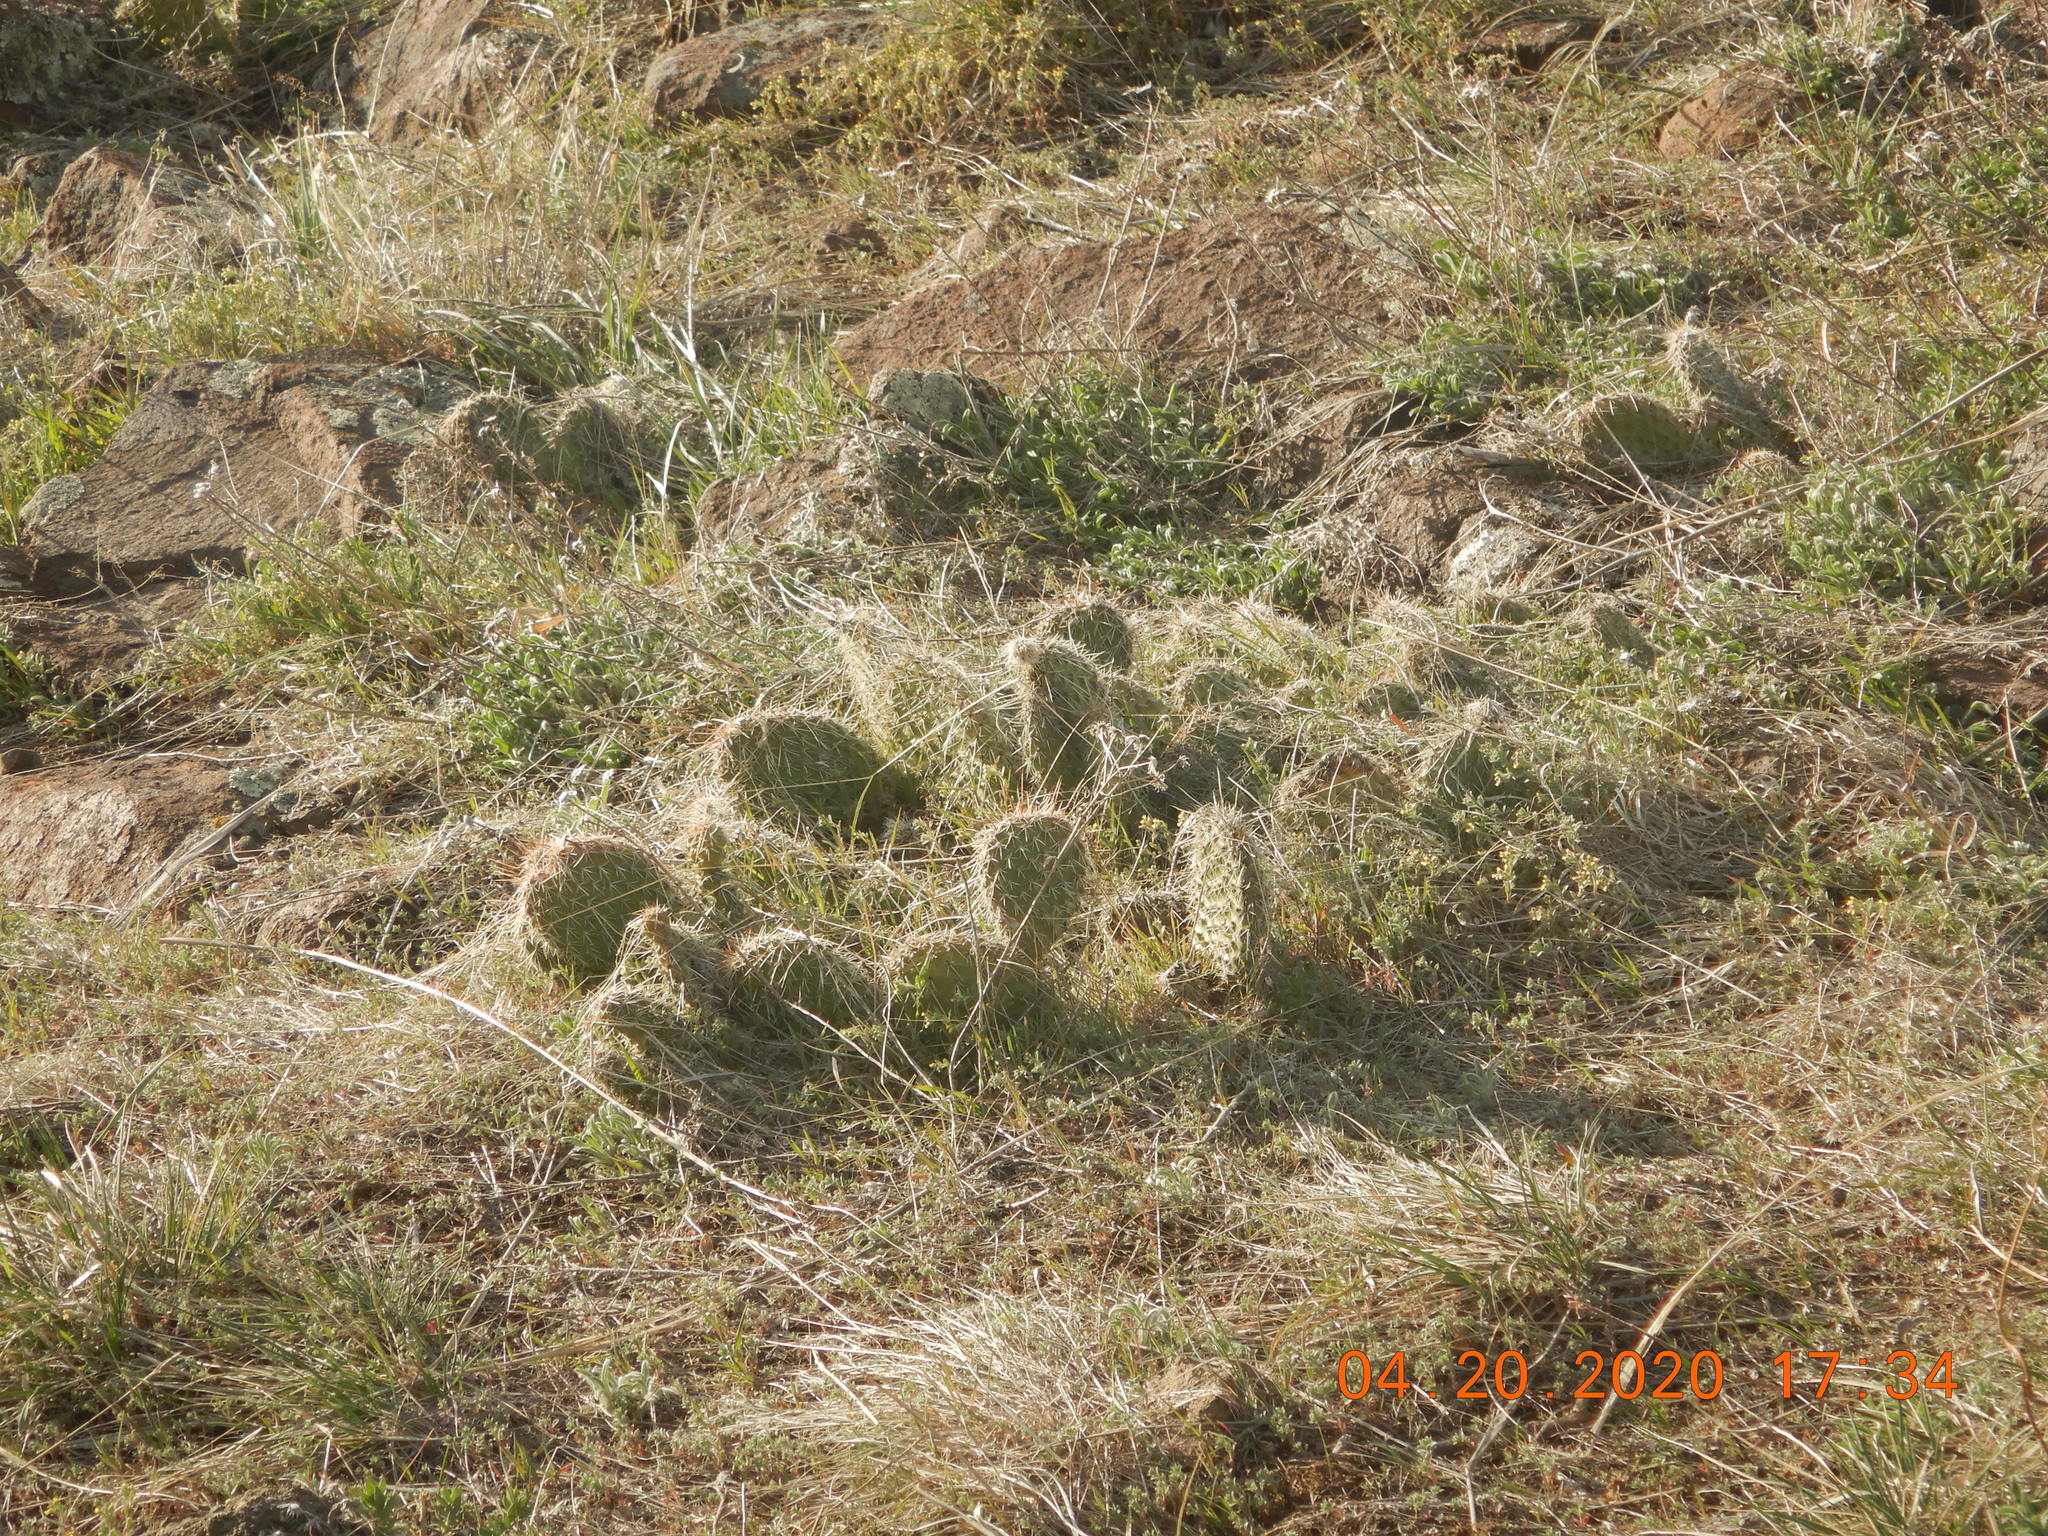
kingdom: Plantae
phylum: Tracheophyta
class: Magnoliopsida
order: Caryophyllales
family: Cactaceae
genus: Opuntia
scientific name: Opuntia polyacantha
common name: Plains prickly-pear
